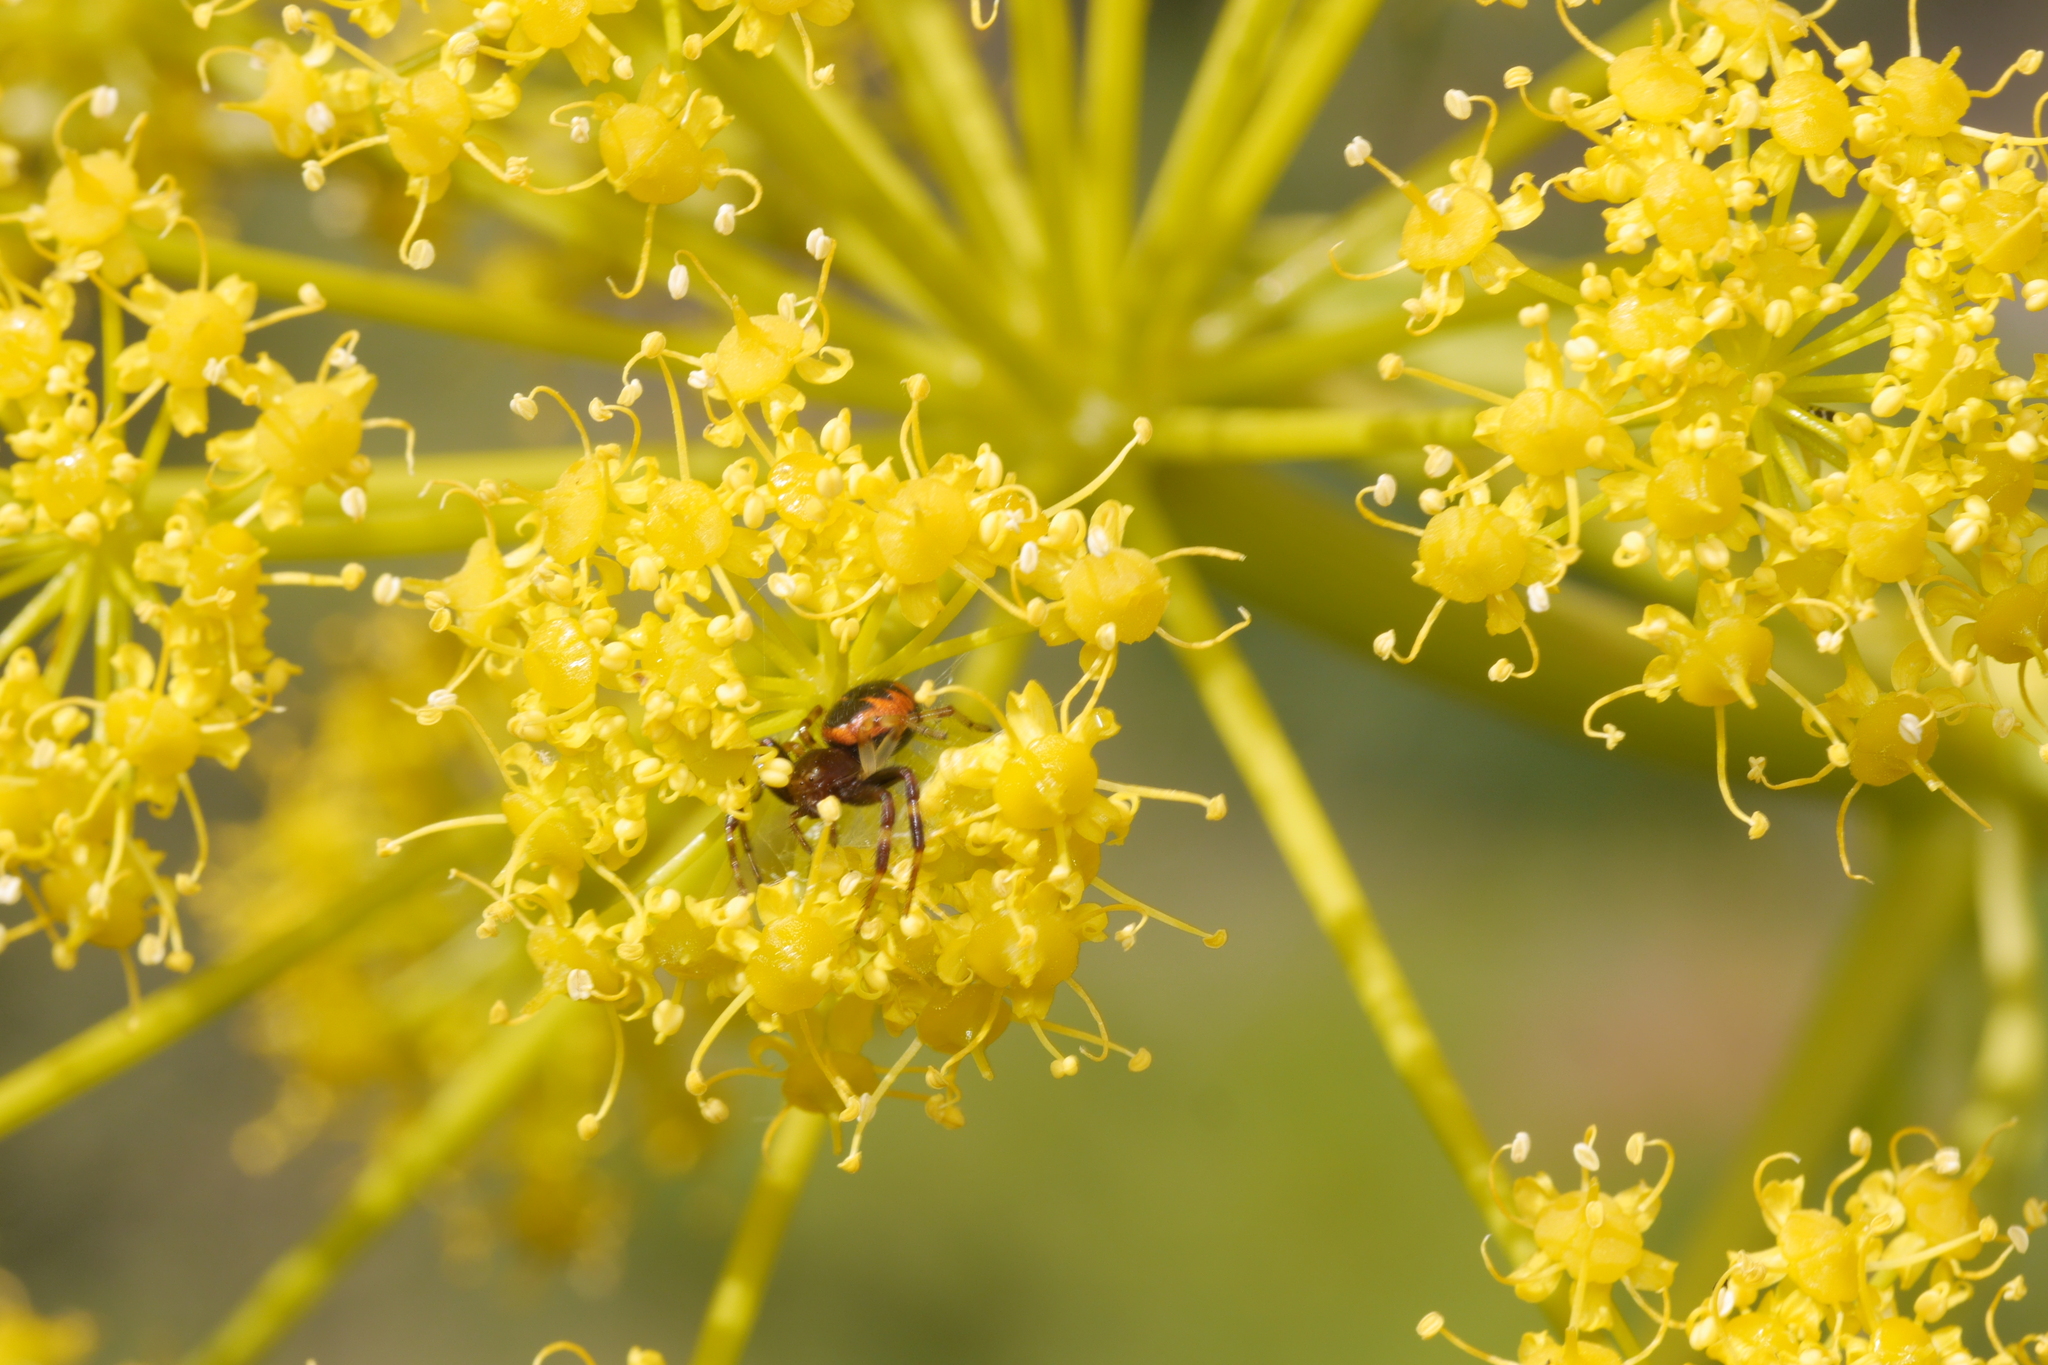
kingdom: Animalia
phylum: Arthropoda
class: Arachnida
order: Araneae
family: Thomisidae
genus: Synema
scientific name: Synema globosum
